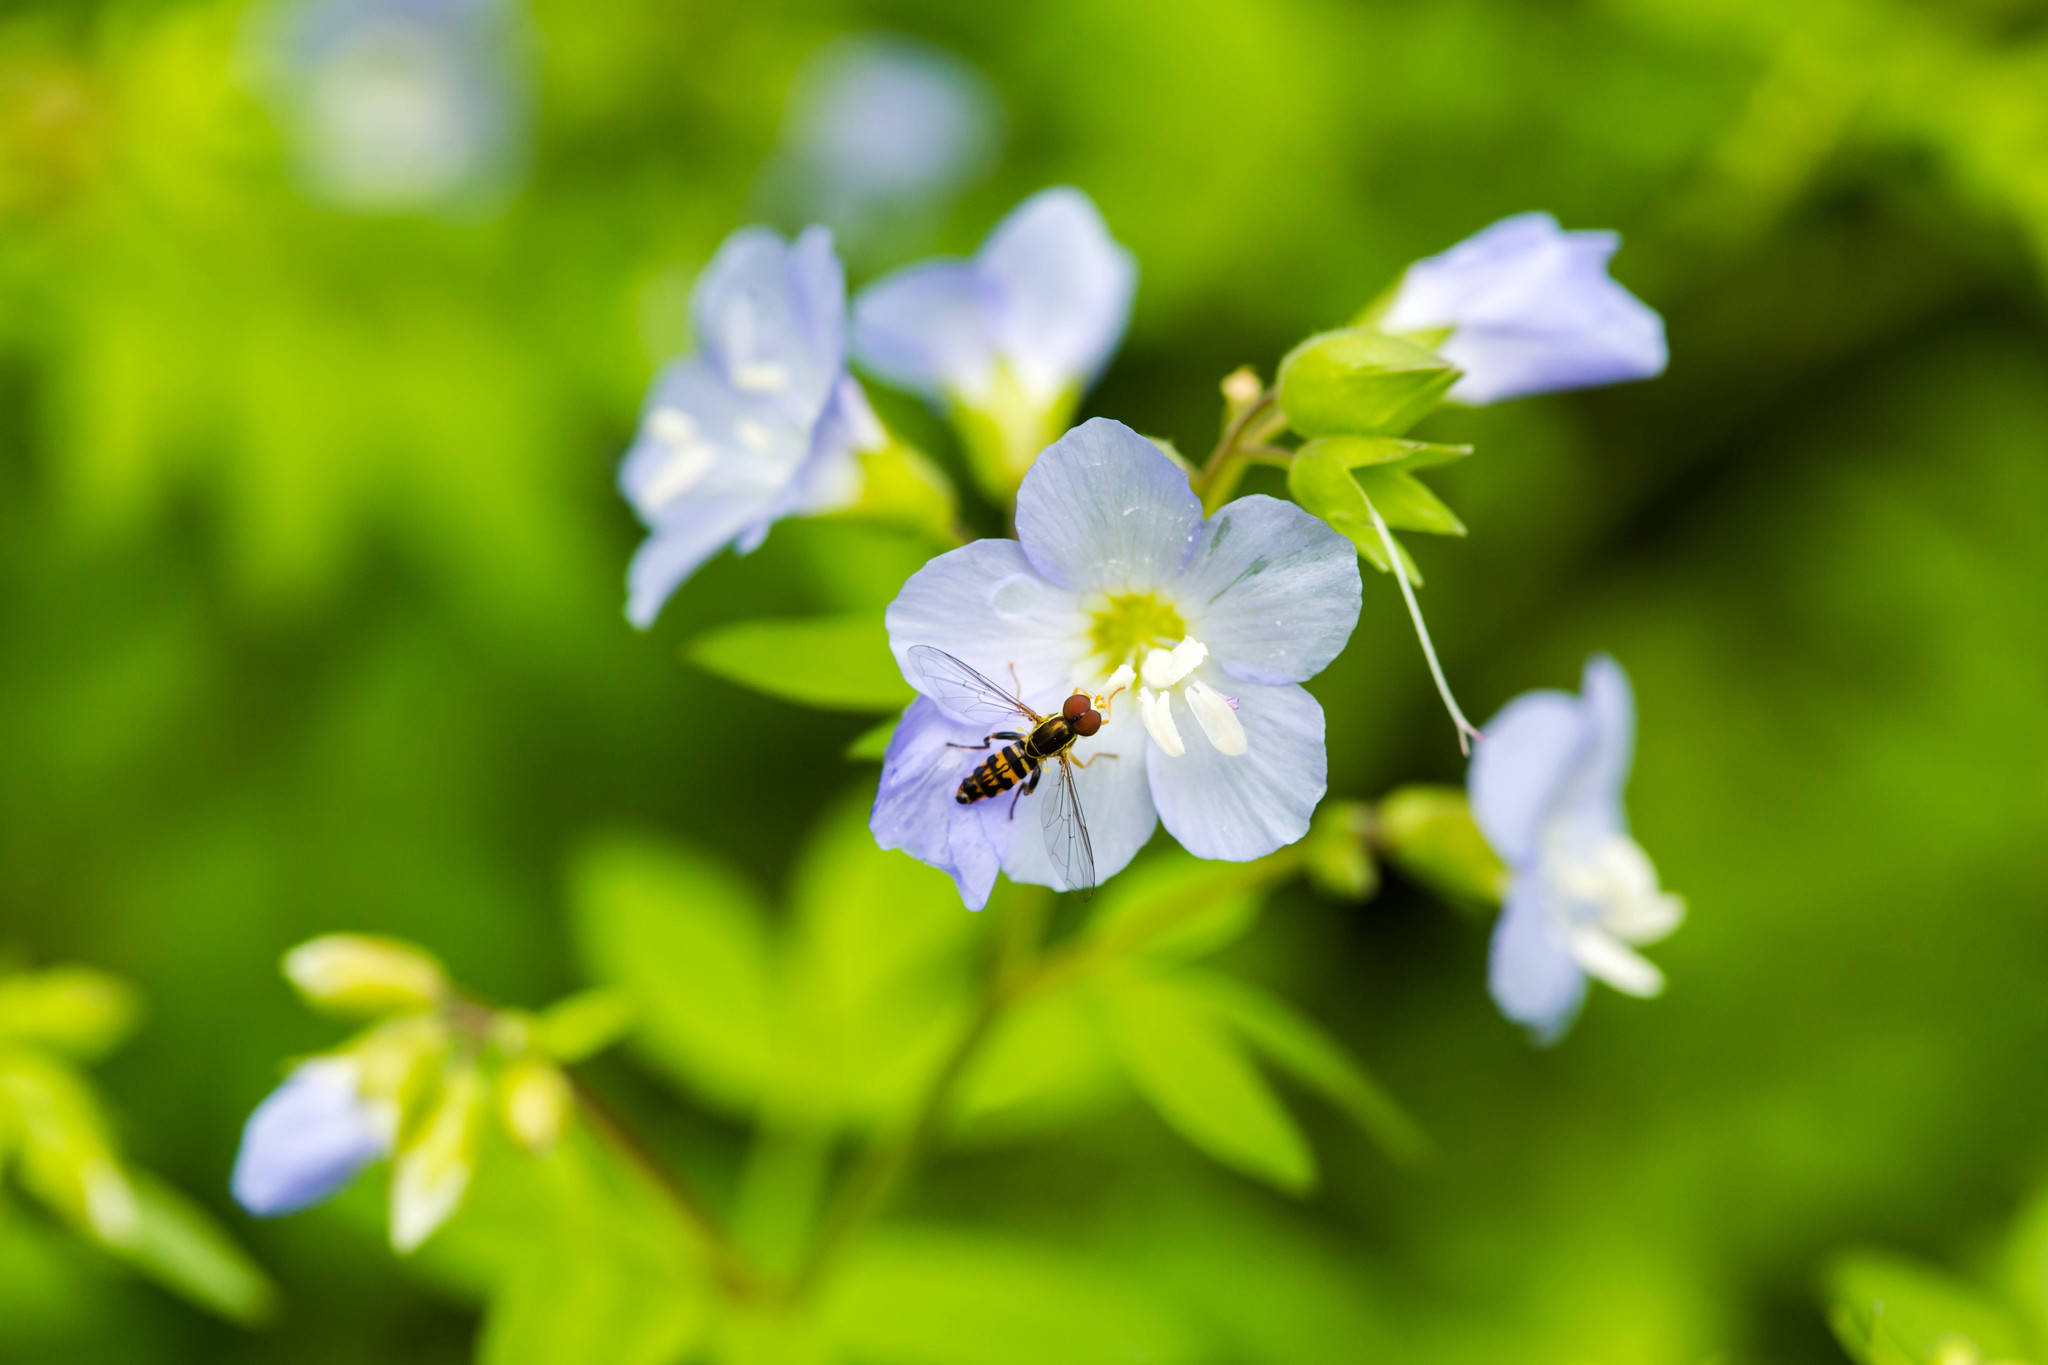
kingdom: Animalia
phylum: Arthropoda
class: Insecta
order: Diptera
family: Syrphidae
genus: Toxomerus
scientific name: Toxomerus geminatus
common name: Eastern calligrapher
